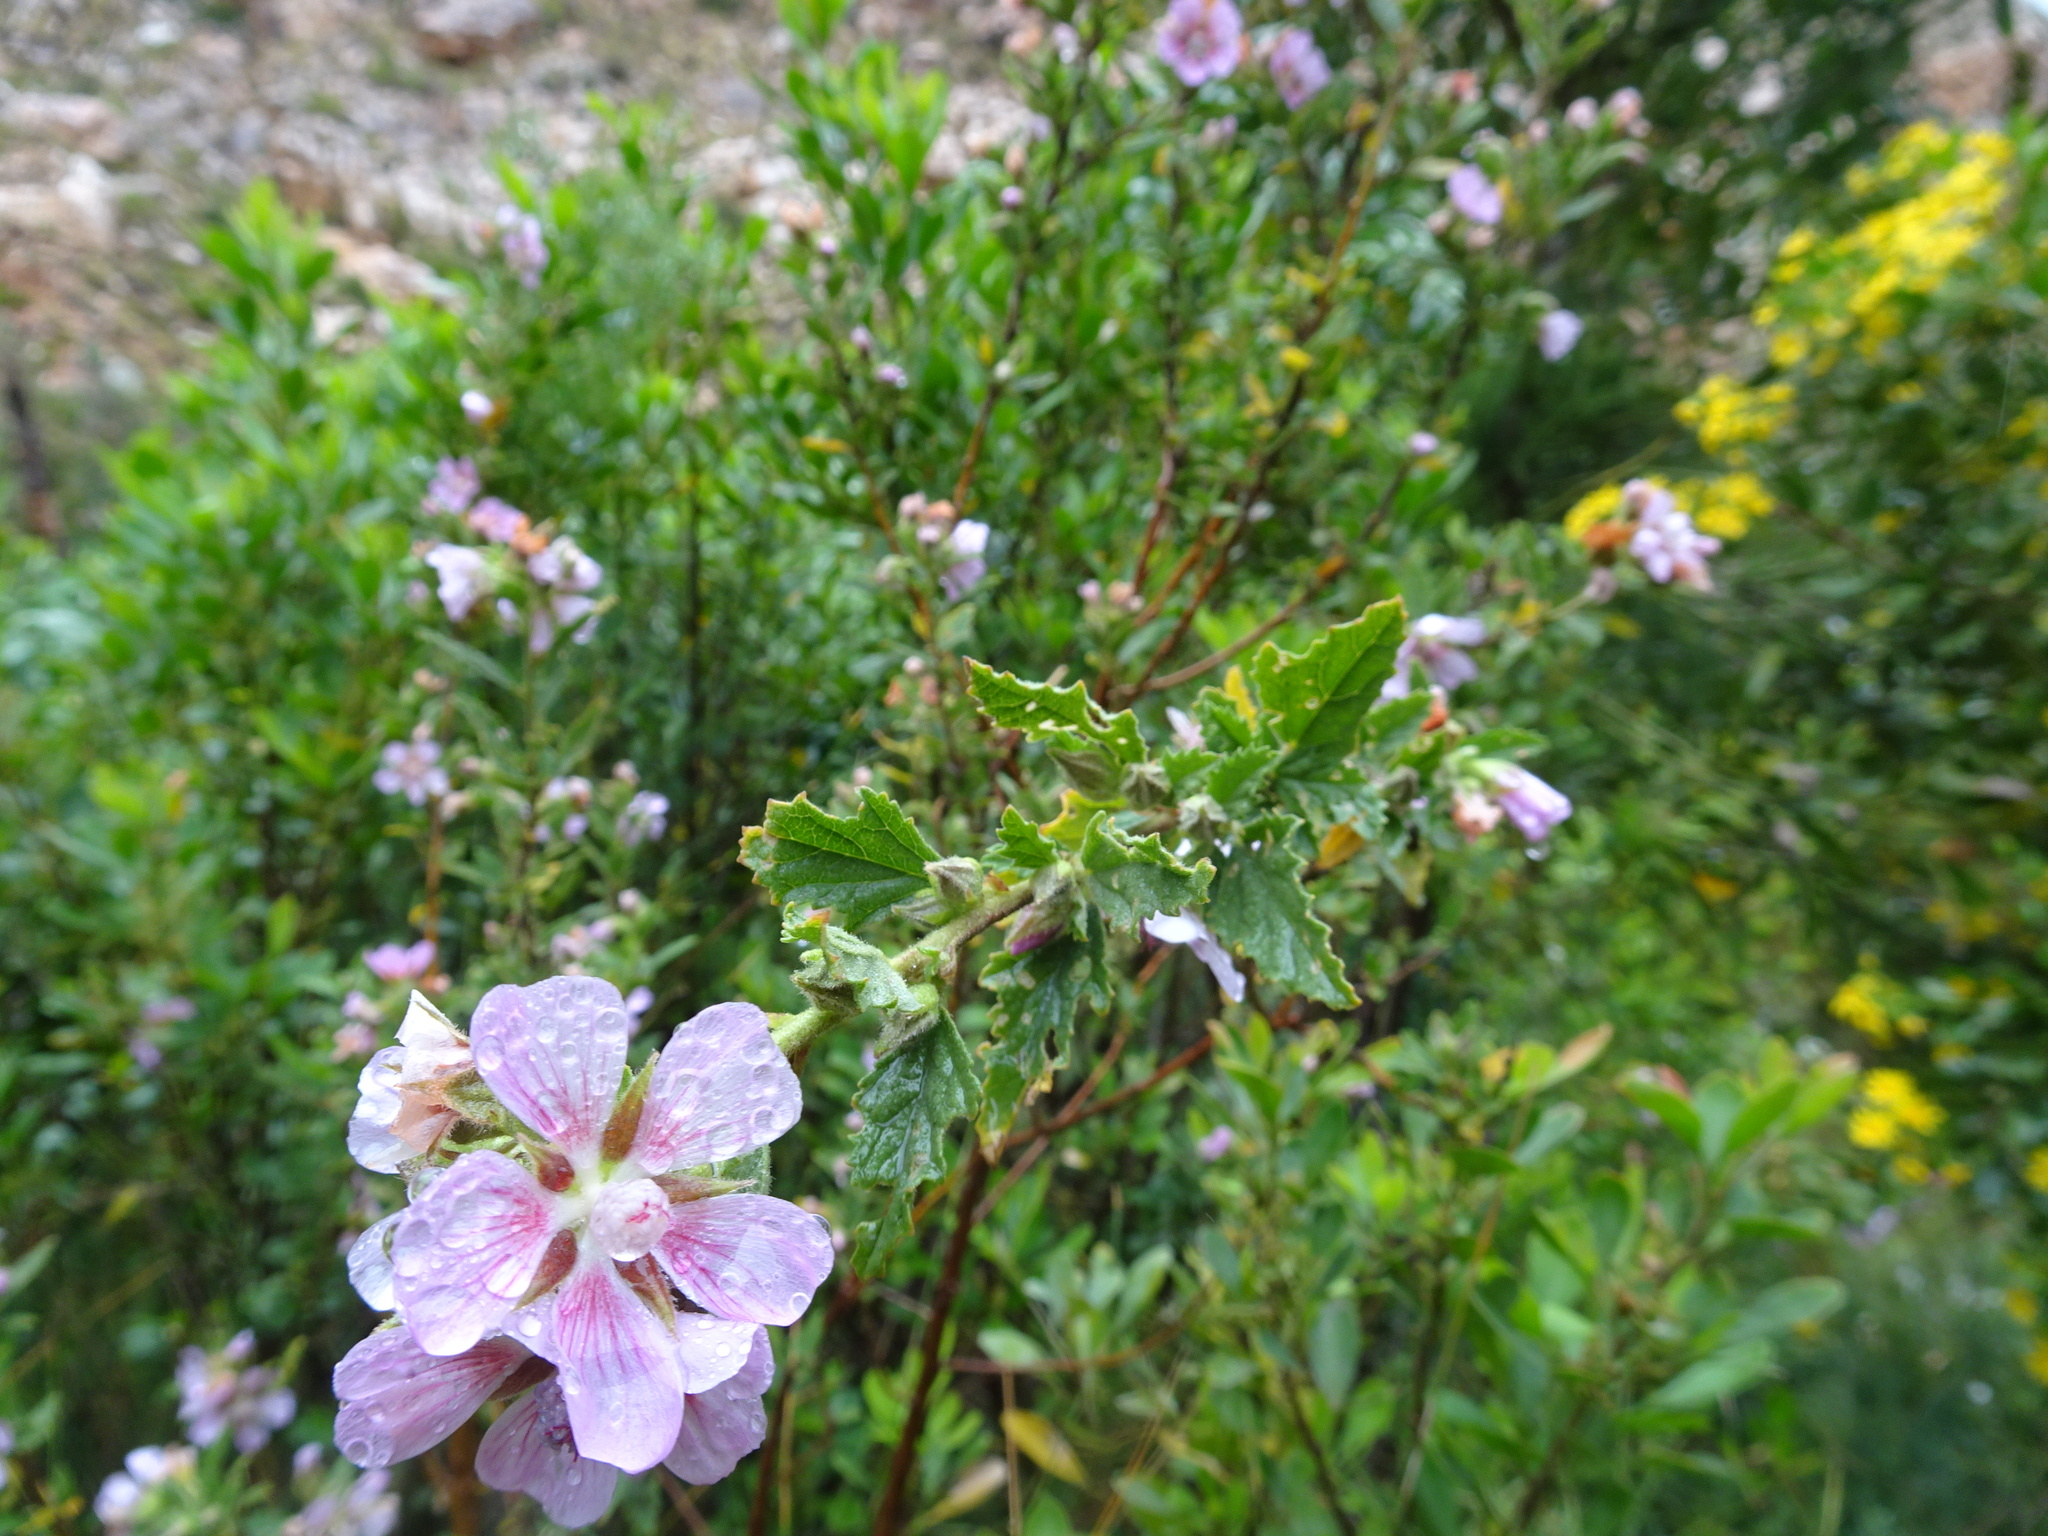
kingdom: Plantae
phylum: Tracheophyta
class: Magnoliopsida
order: Malvales
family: Malvaceae
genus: Anisodontea
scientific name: Anisodontea triloba
